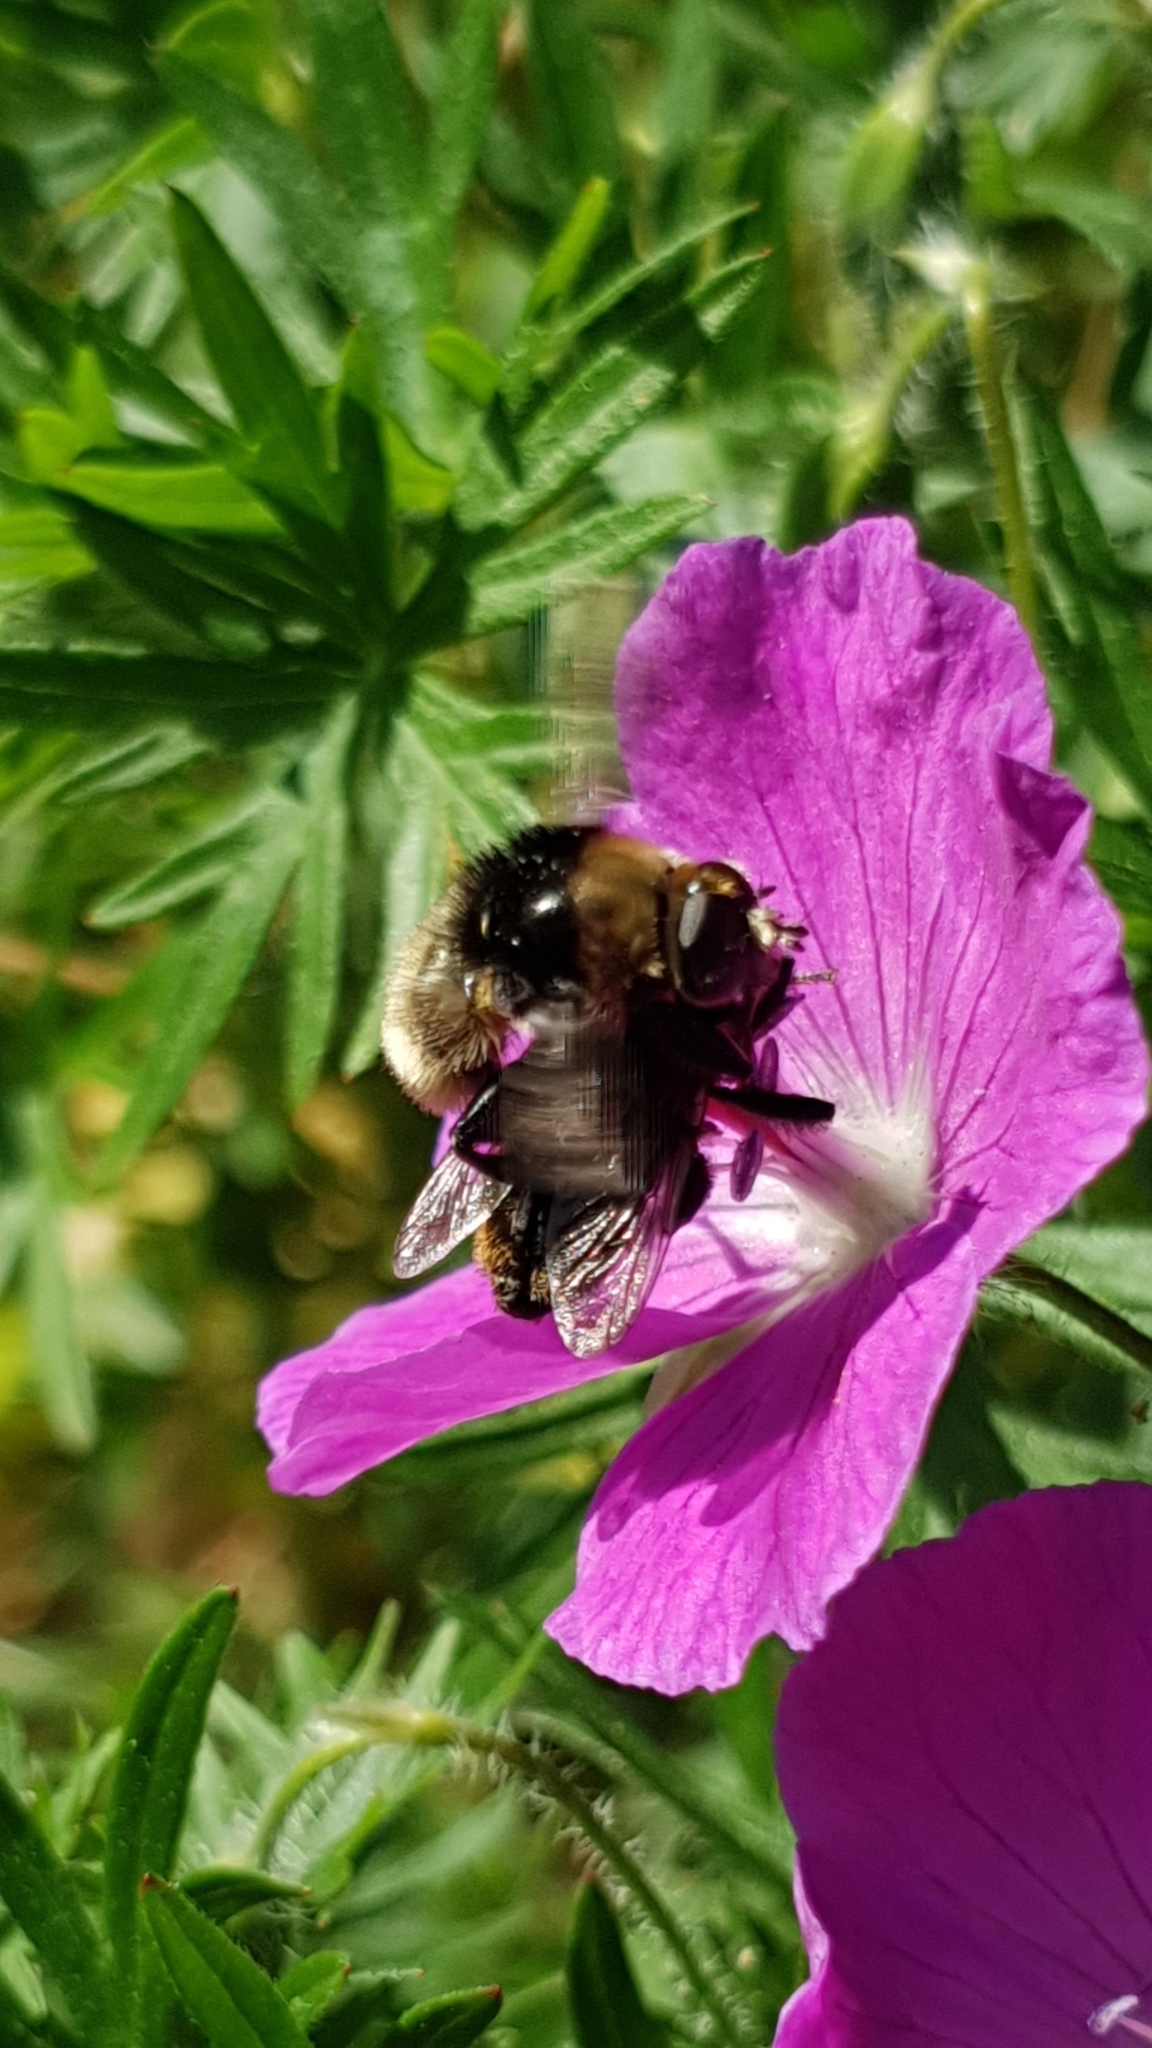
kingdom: Animalia
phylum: Arthropoda
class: Insecta
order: Diptera
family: Syrphidae
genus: Merodon
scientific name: Merodon equestris
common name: Greater bulb-fly
